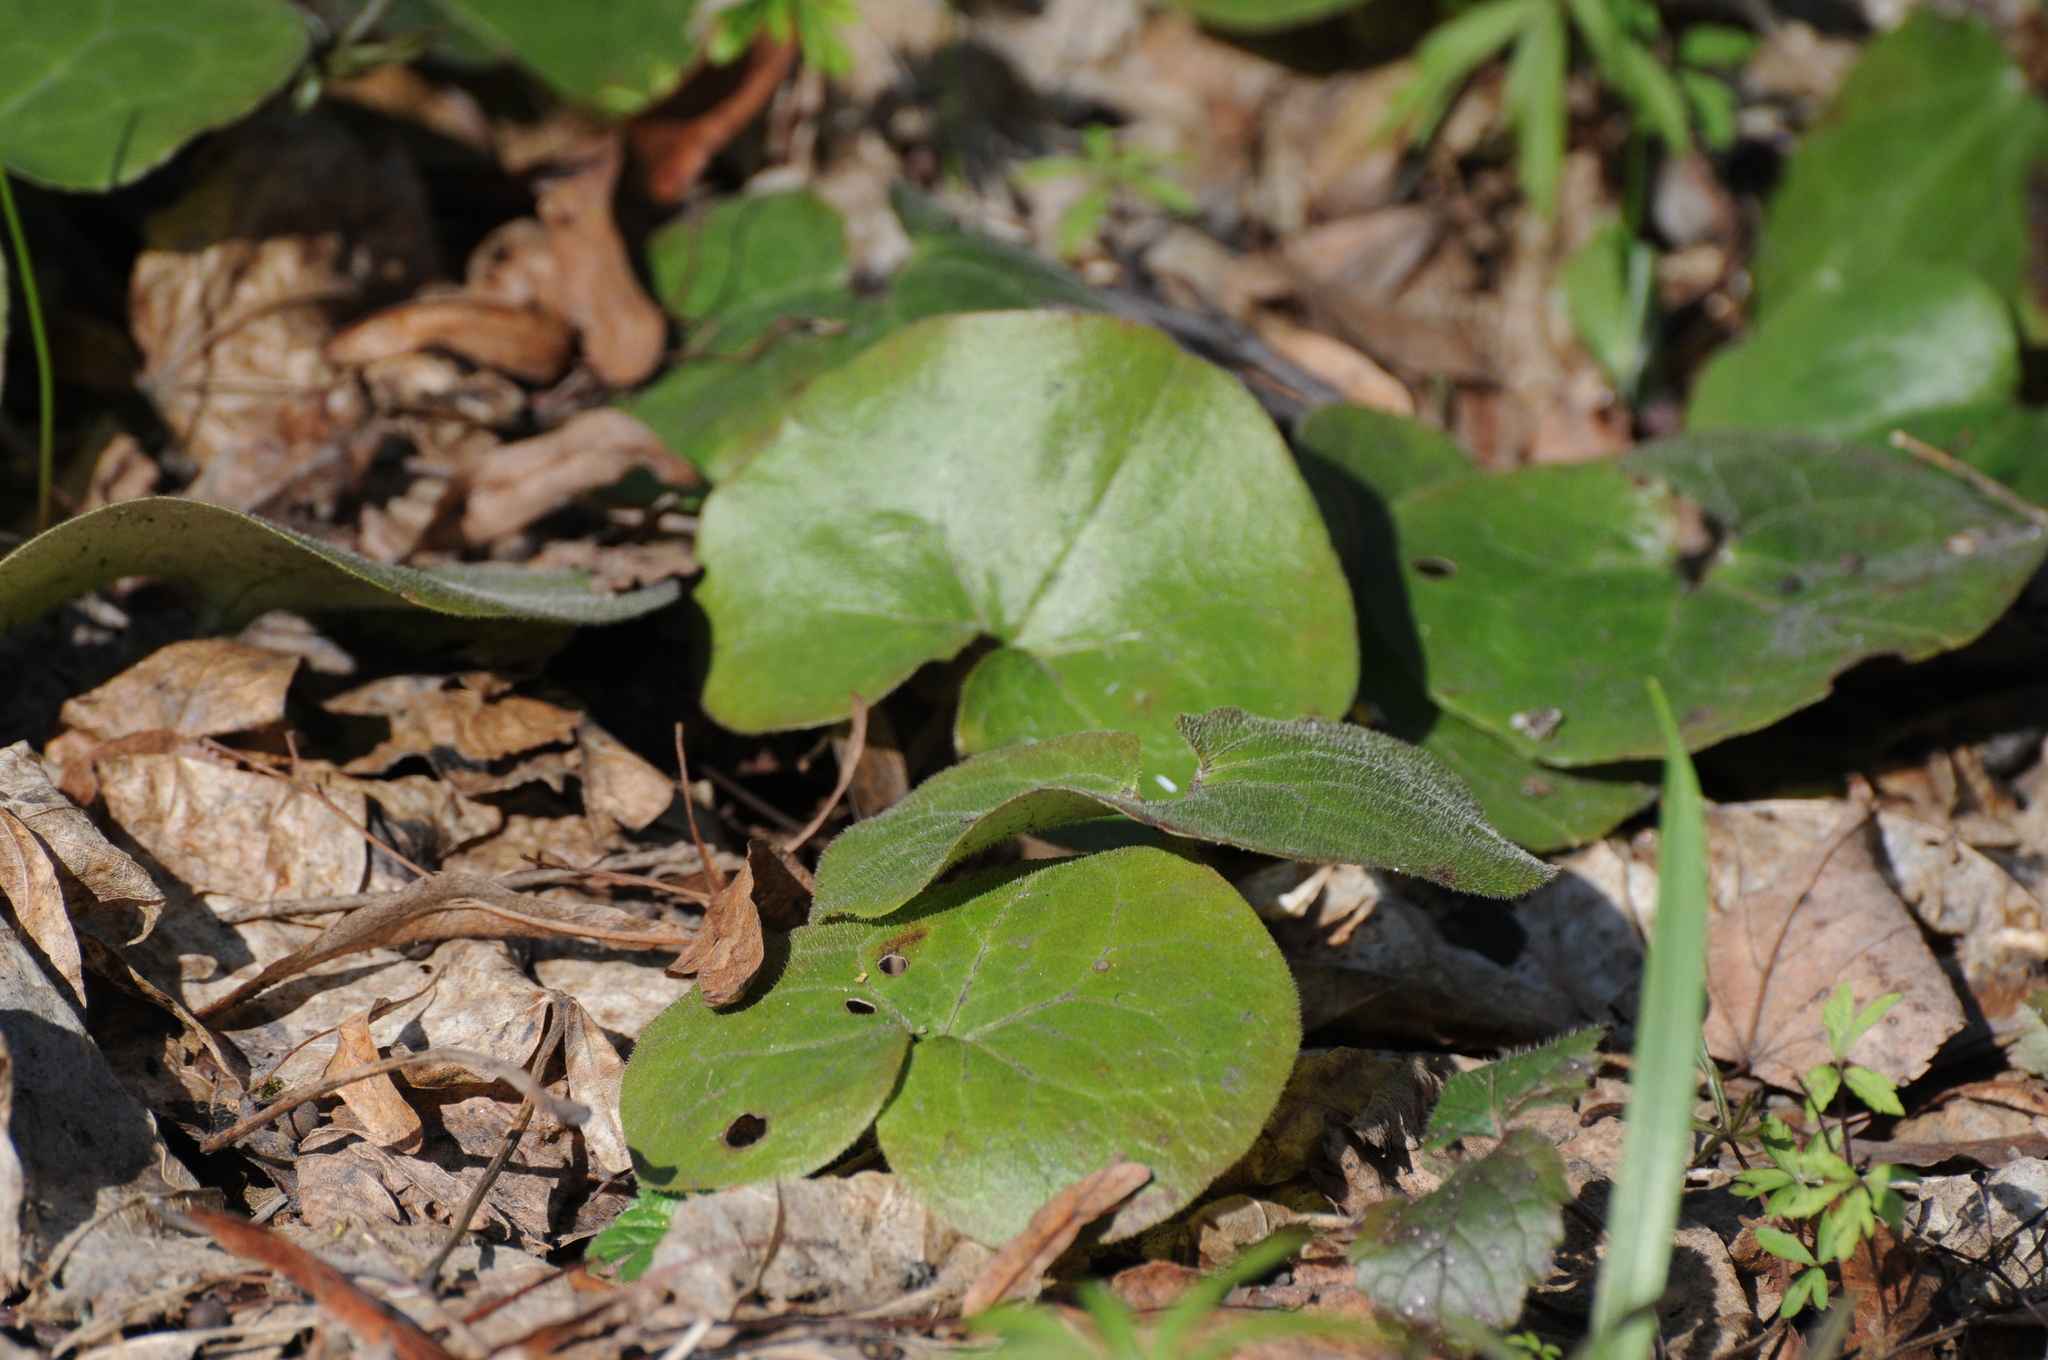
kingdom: Plantae
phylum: Tracheophyta
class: Magnoliopsida
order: Piperales
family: Aristolochiaceae
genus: Asarum
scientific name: Asarum europaeum
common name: Asarabacca
